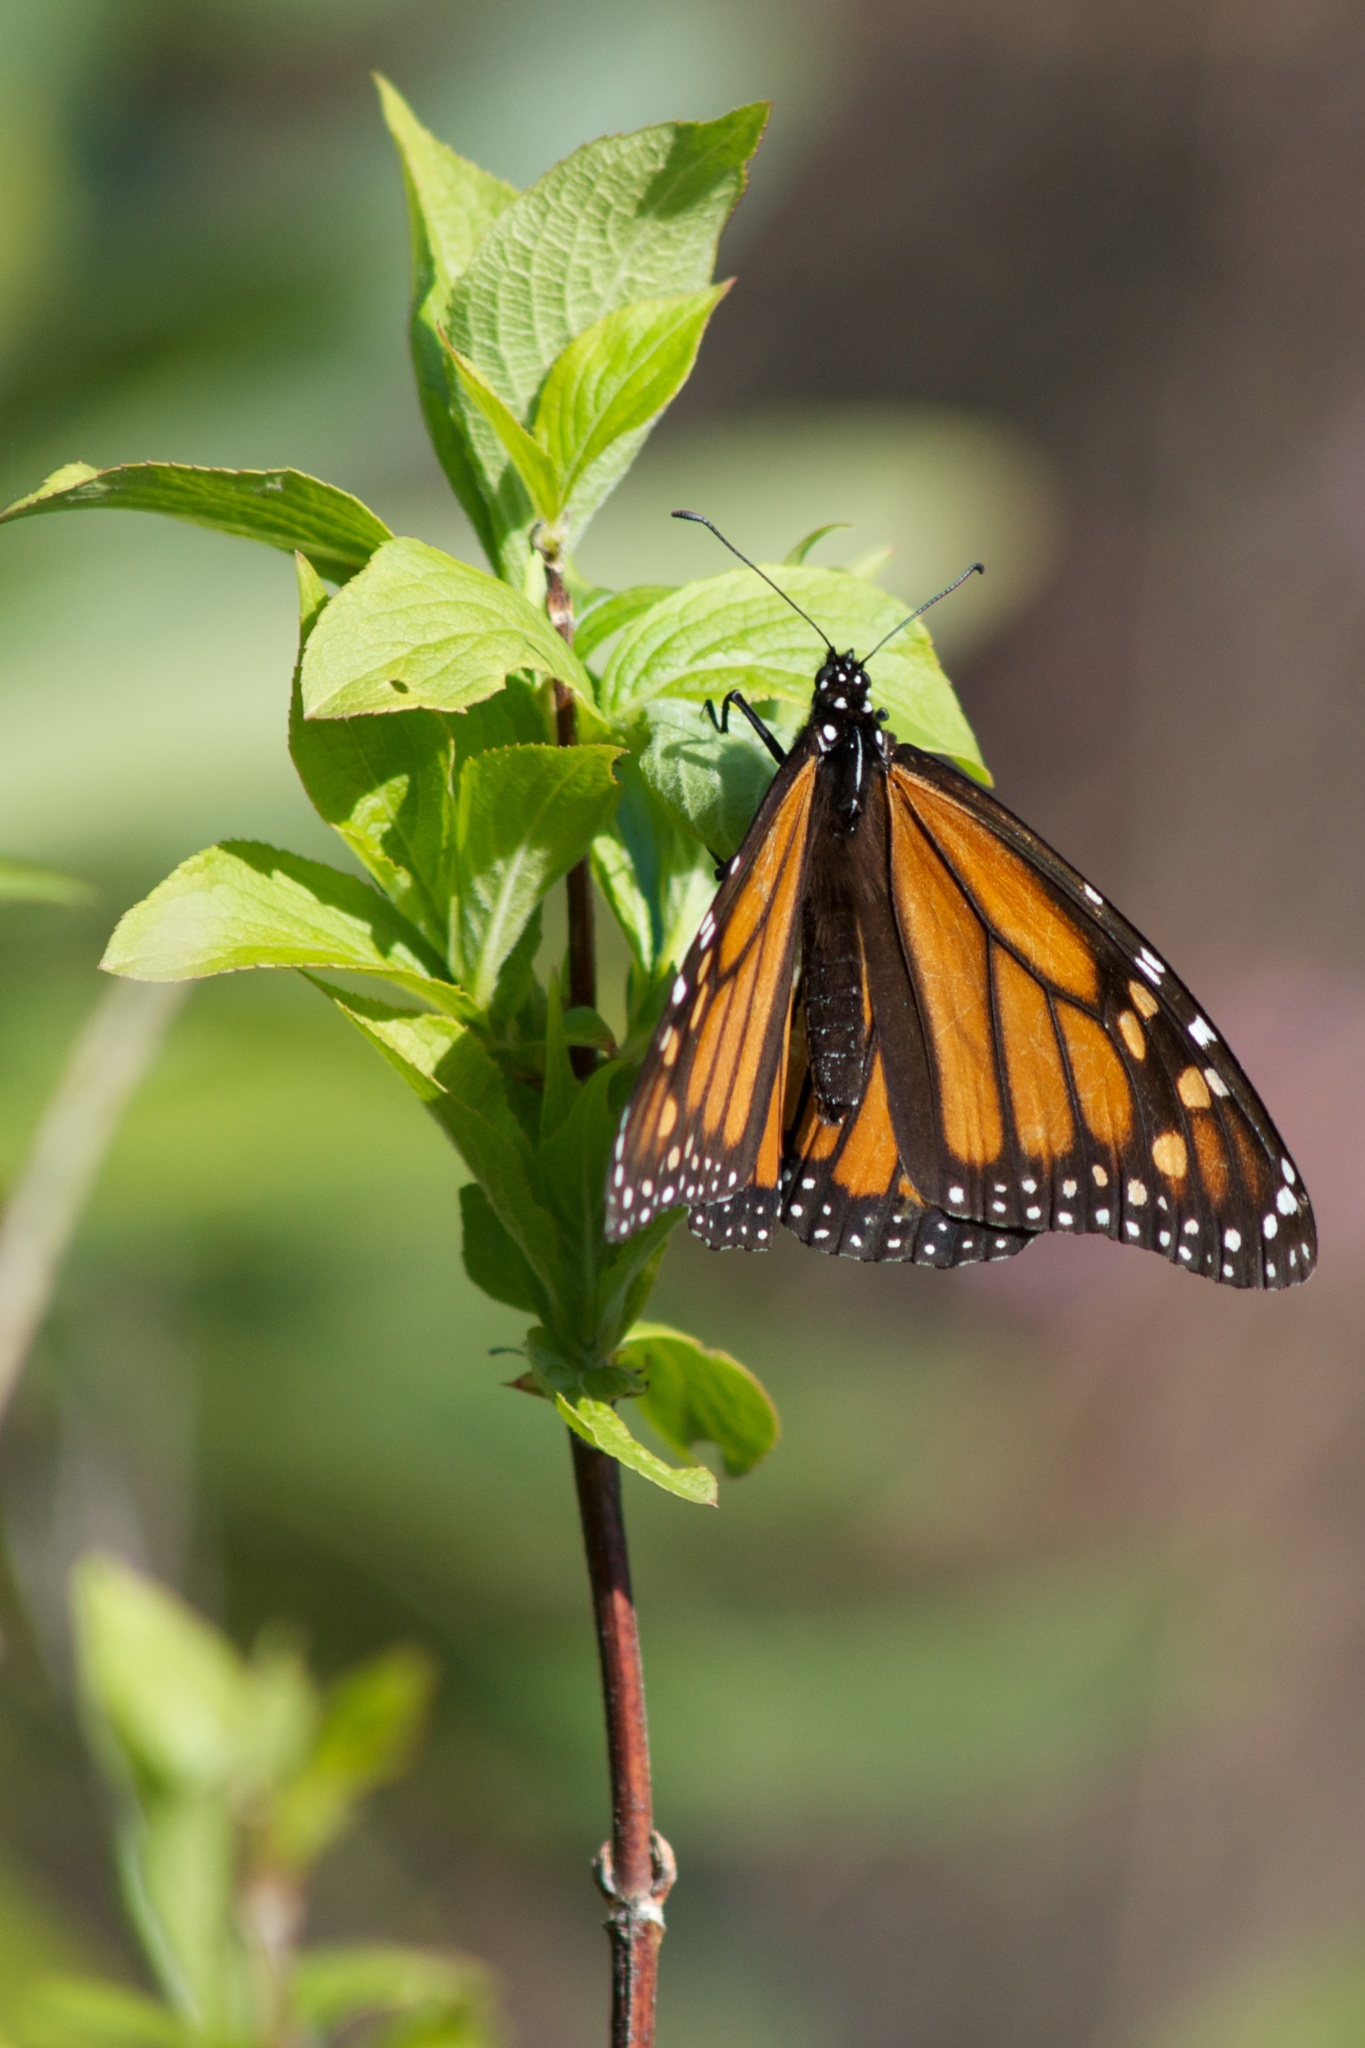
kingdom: Animalia
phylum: Arthropoda
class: Insecta
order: Lepidoptera
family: Nymphalidae
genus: Danaus
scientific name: Danaus plexippus
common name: Monarch
